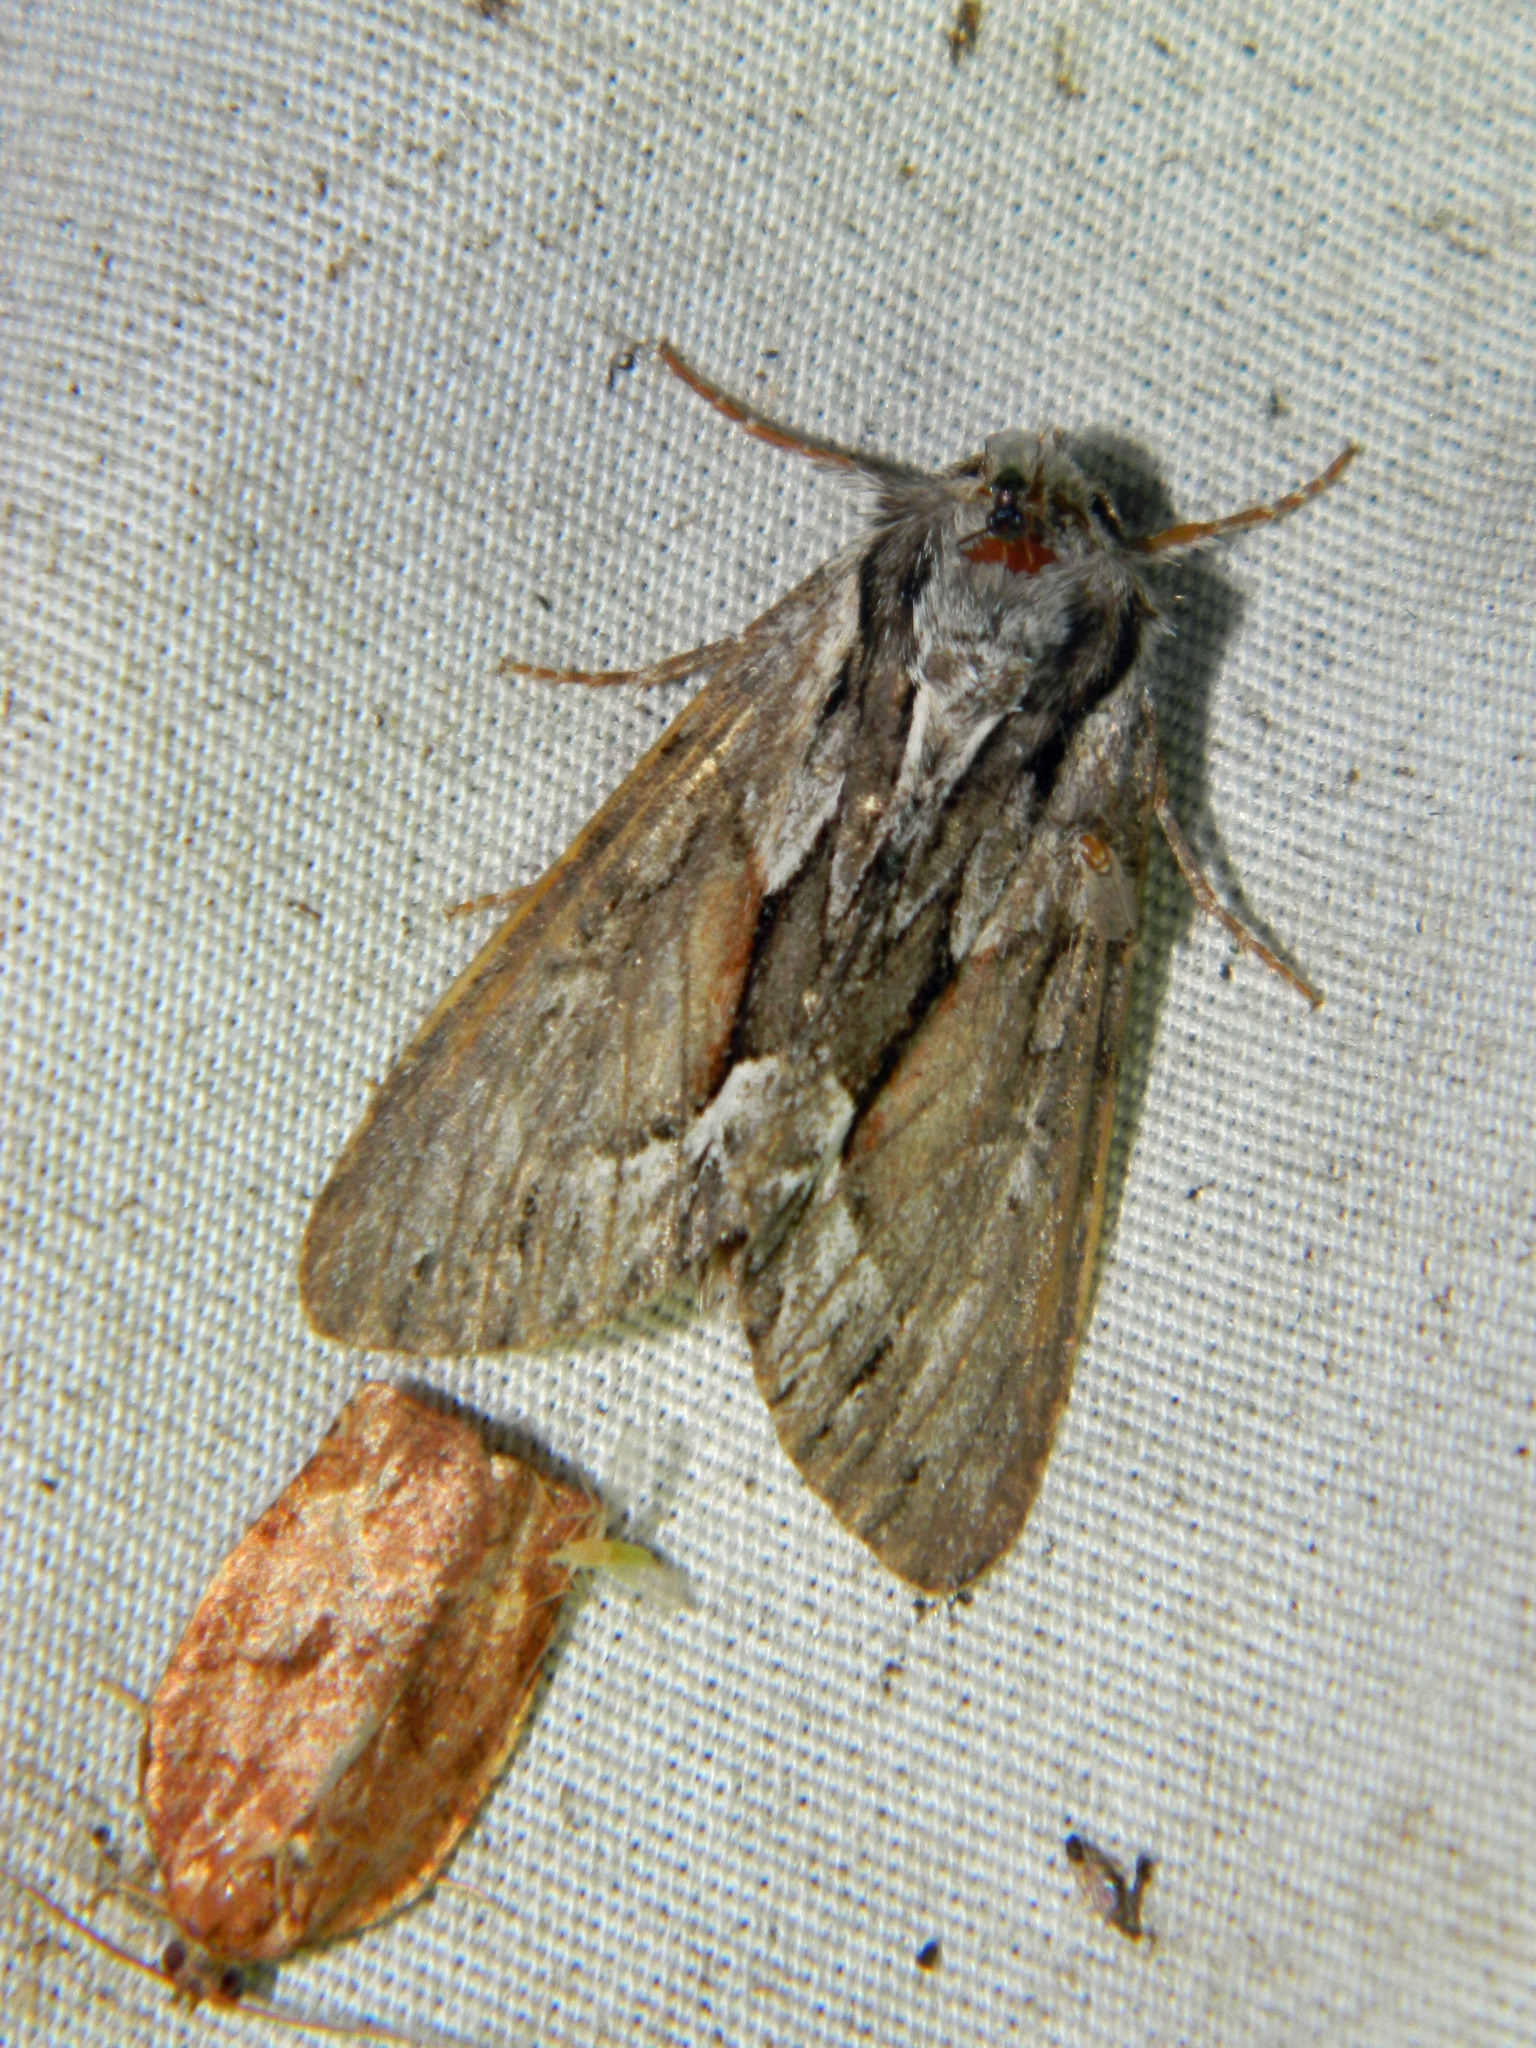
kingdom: Animalia
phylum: Arthropoda
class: Insecta
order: Lepidoptera
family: Noctuidae
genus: Hyppa
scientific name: Hyppa xylinoides
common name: Common hyppa moth
